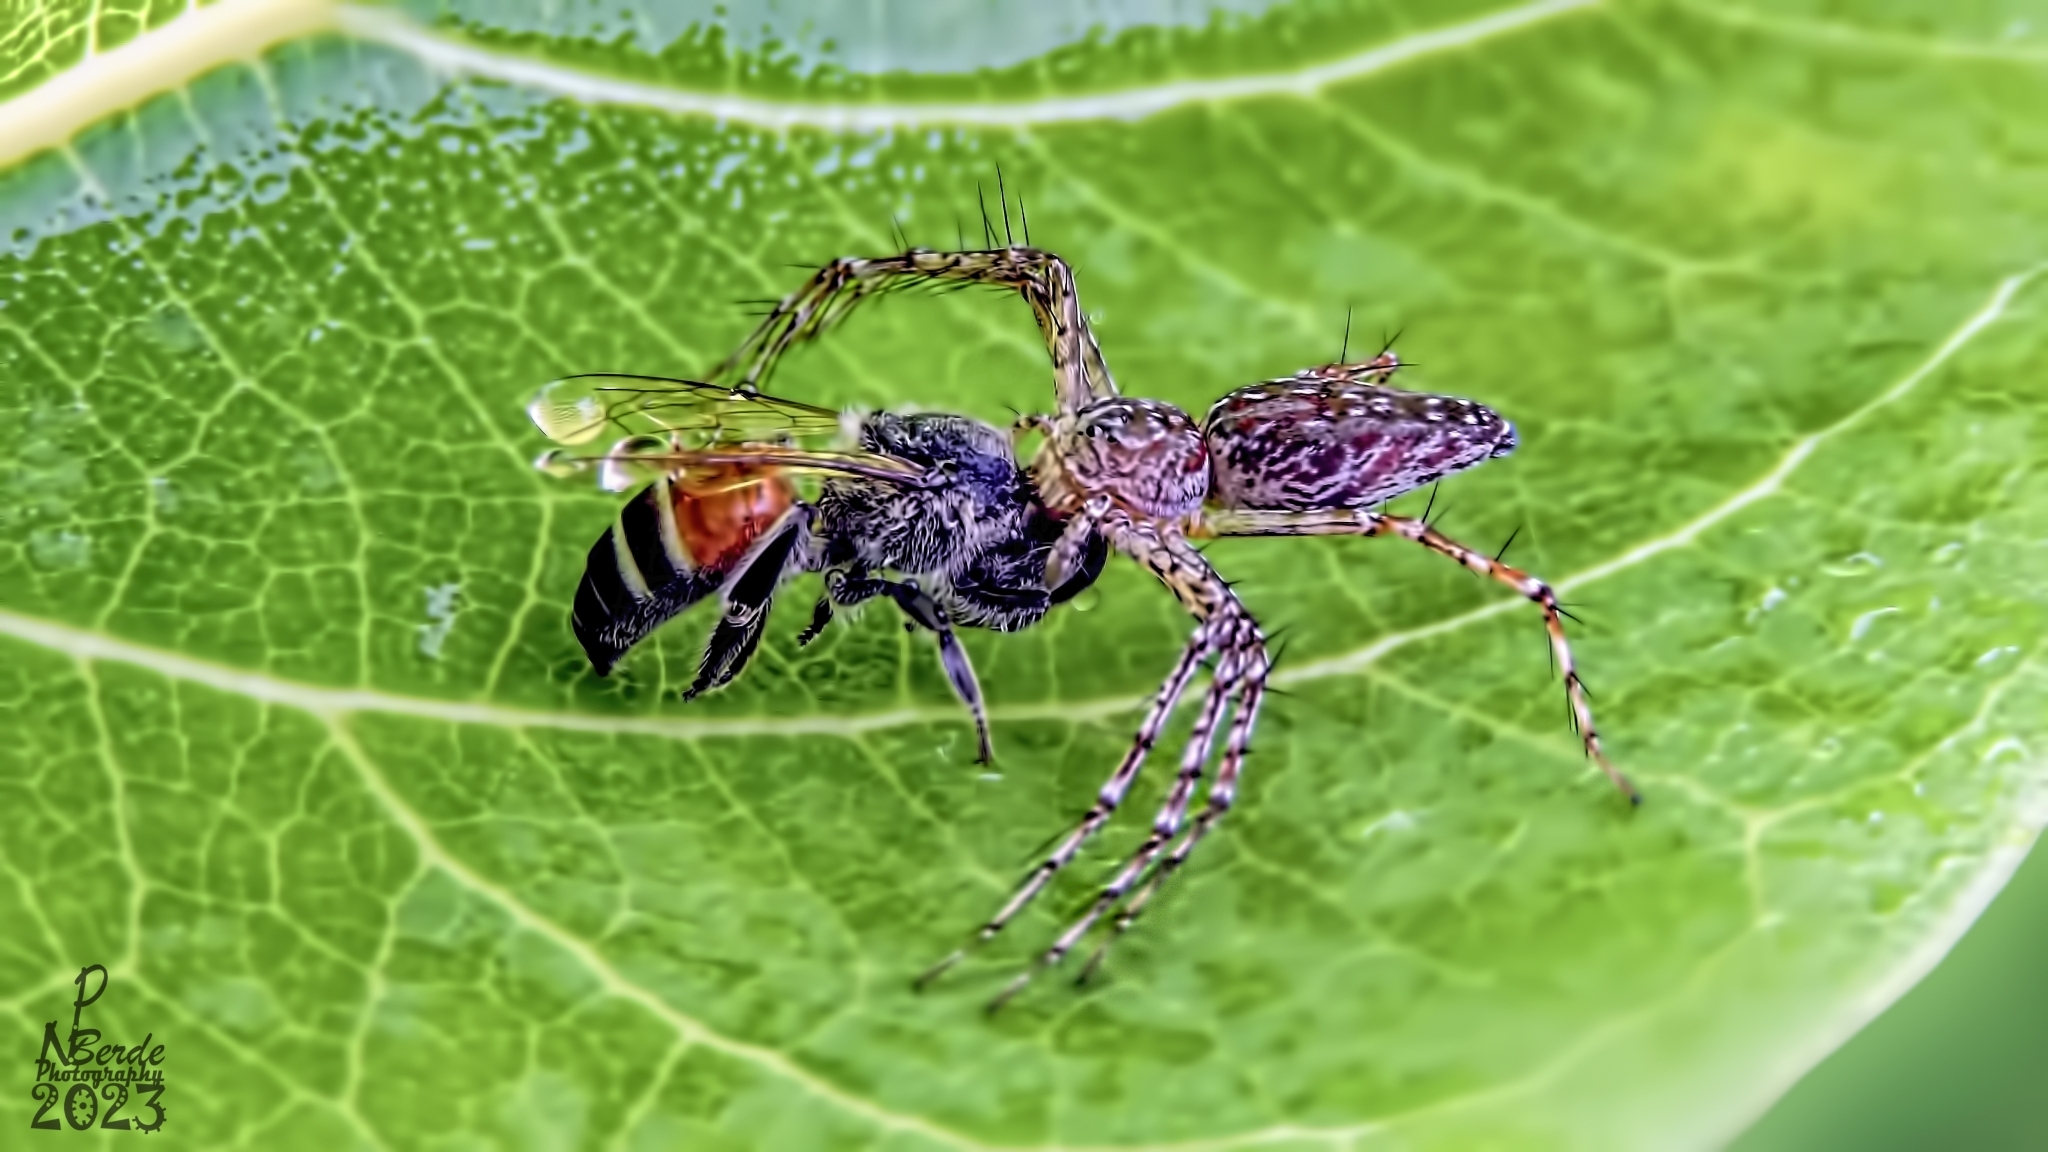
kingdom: Animalia
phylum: Arthropoda
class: Arachnida
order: Araneae
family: Oxyopidae
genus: Hamadruas
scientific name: Hamadruas hieroglyphica
